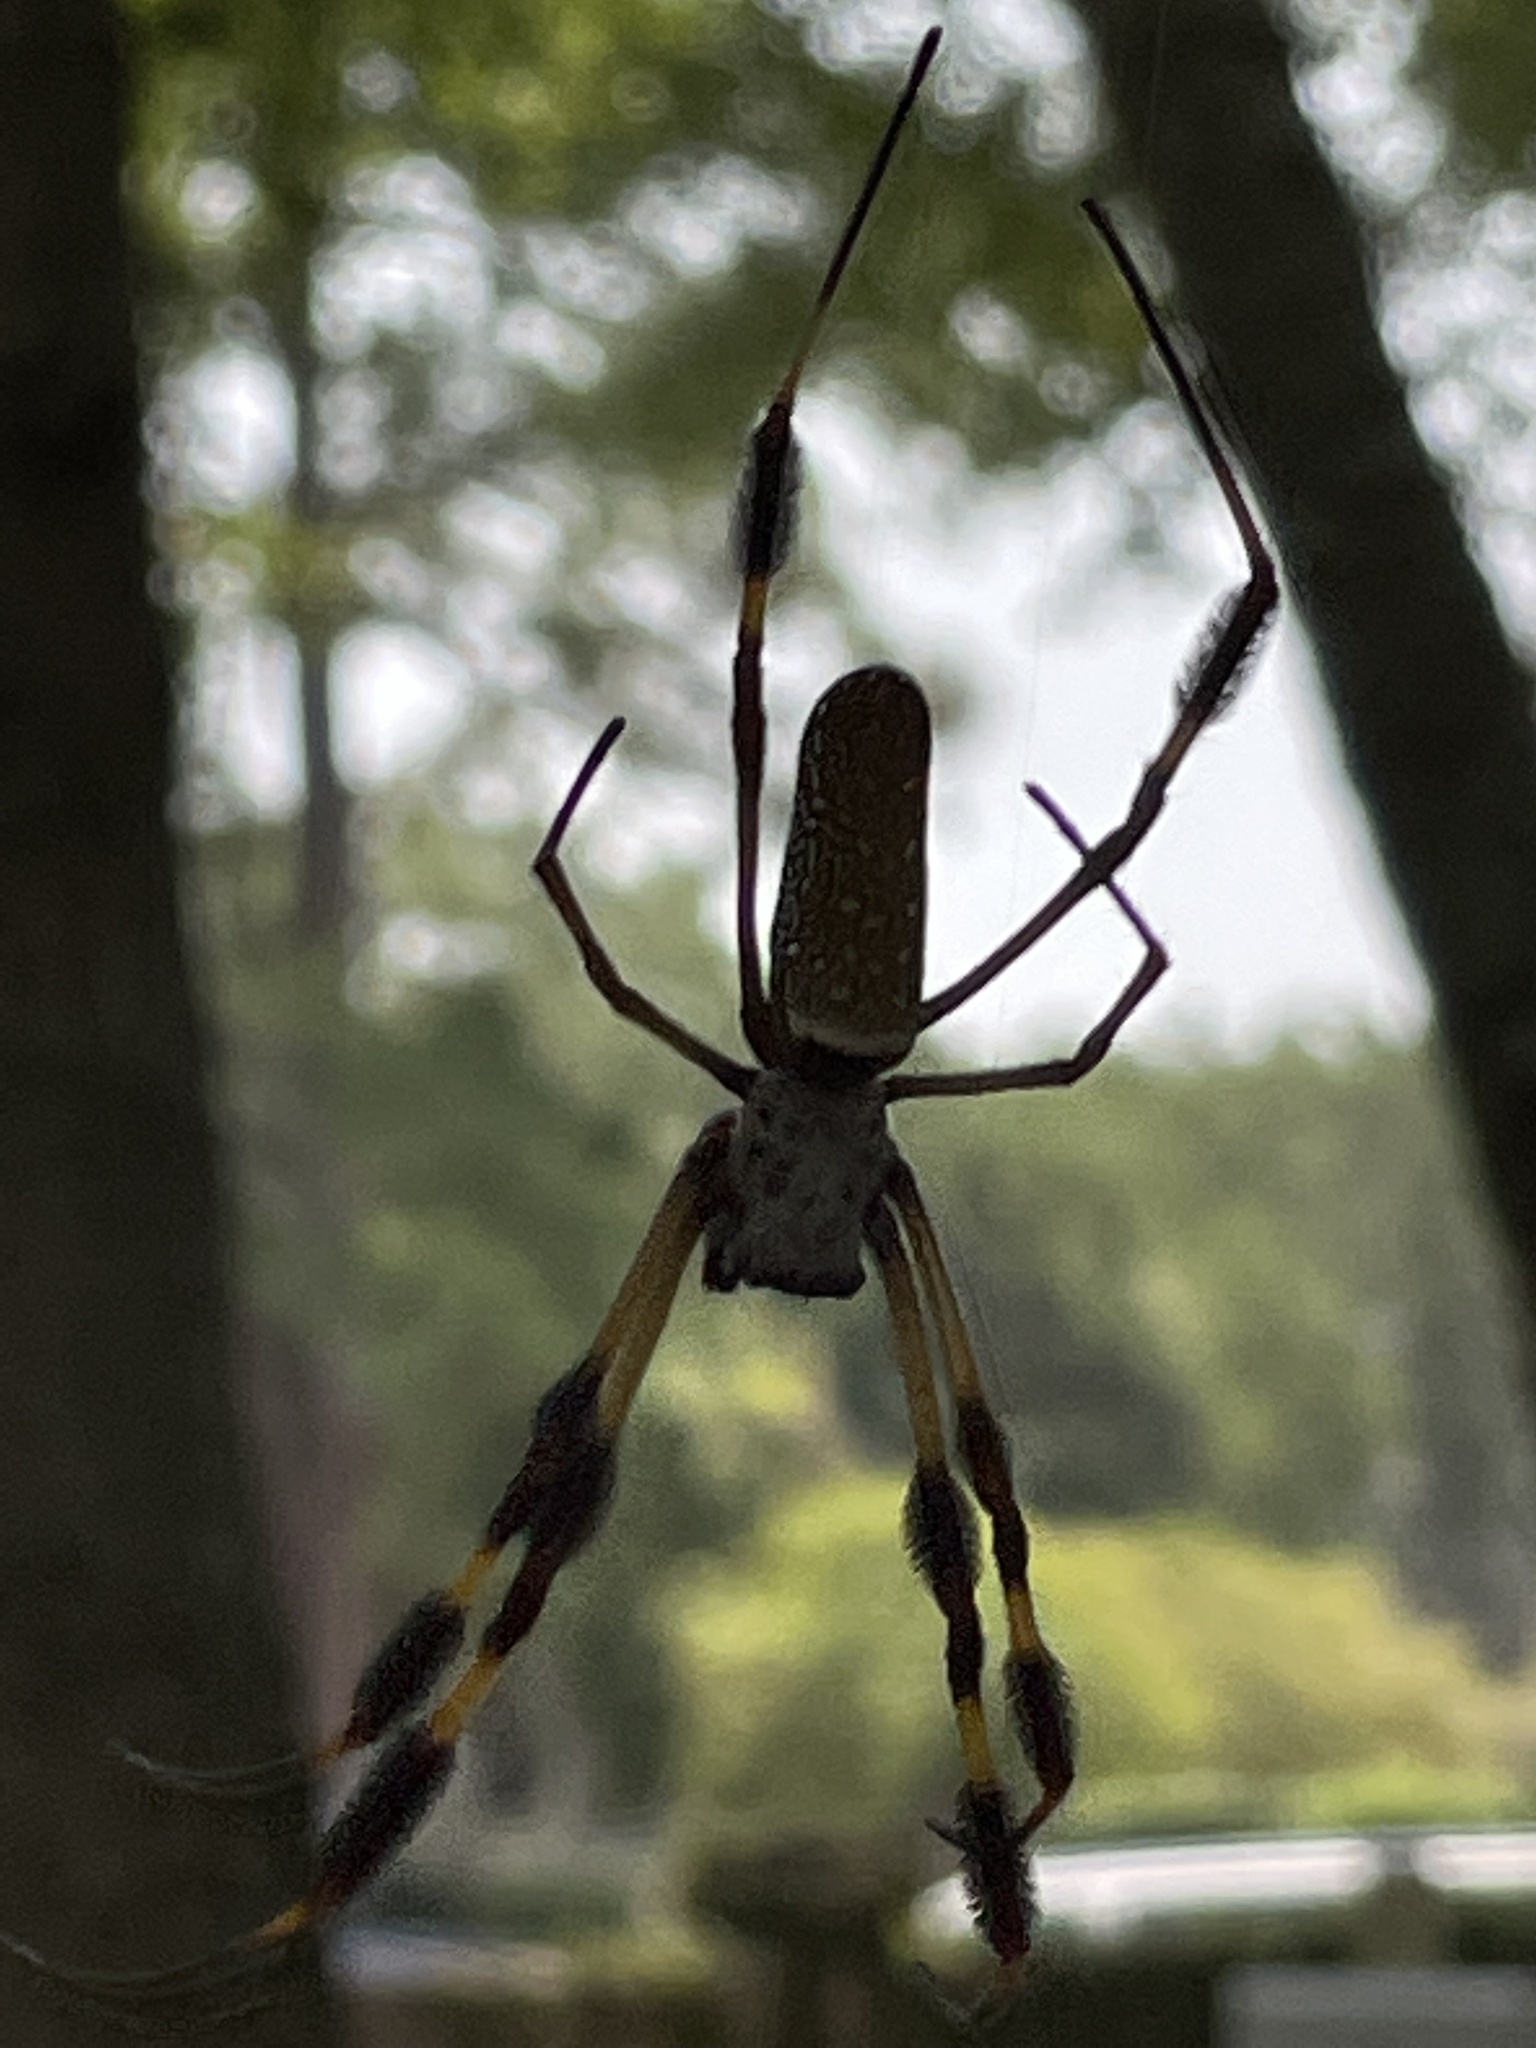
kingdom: Animalia
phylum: Arthropoda
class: Arachnida
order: Araneae
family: Araneidae
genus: Trichonephila
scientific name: Trichonephila clavipes
